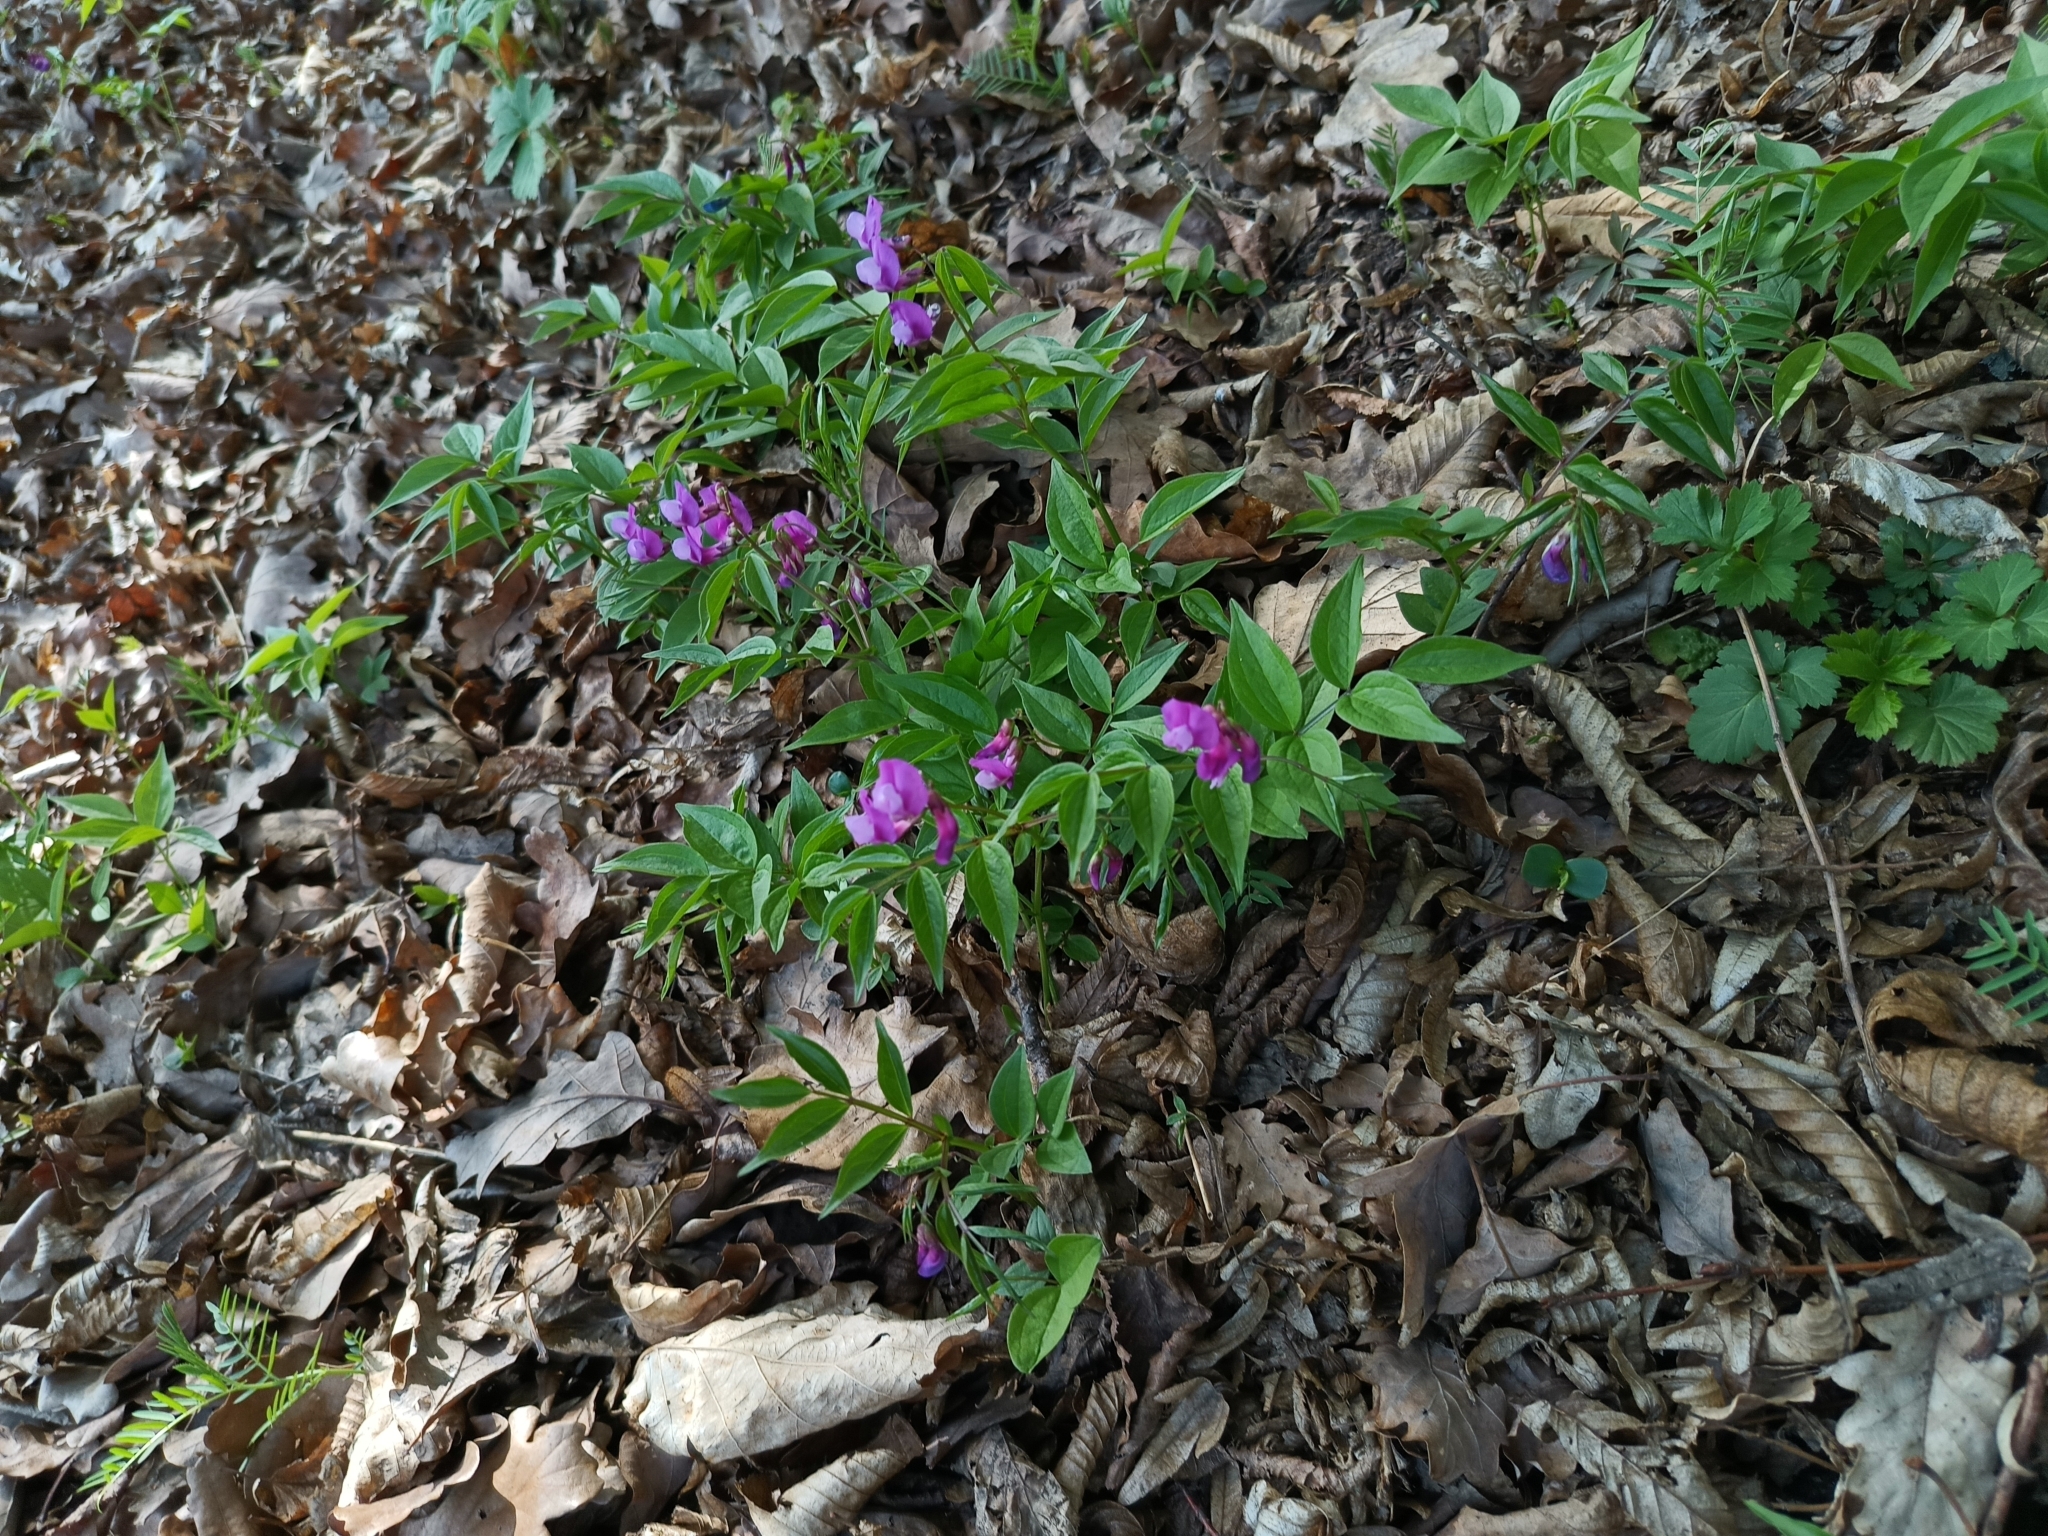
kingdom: Plantae
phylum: Tracheophyta
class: Magnoliopsida
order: Fabales
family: Fabaceae
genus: Lathyrus
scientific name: Lathyrus vernus
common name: Spring pea
